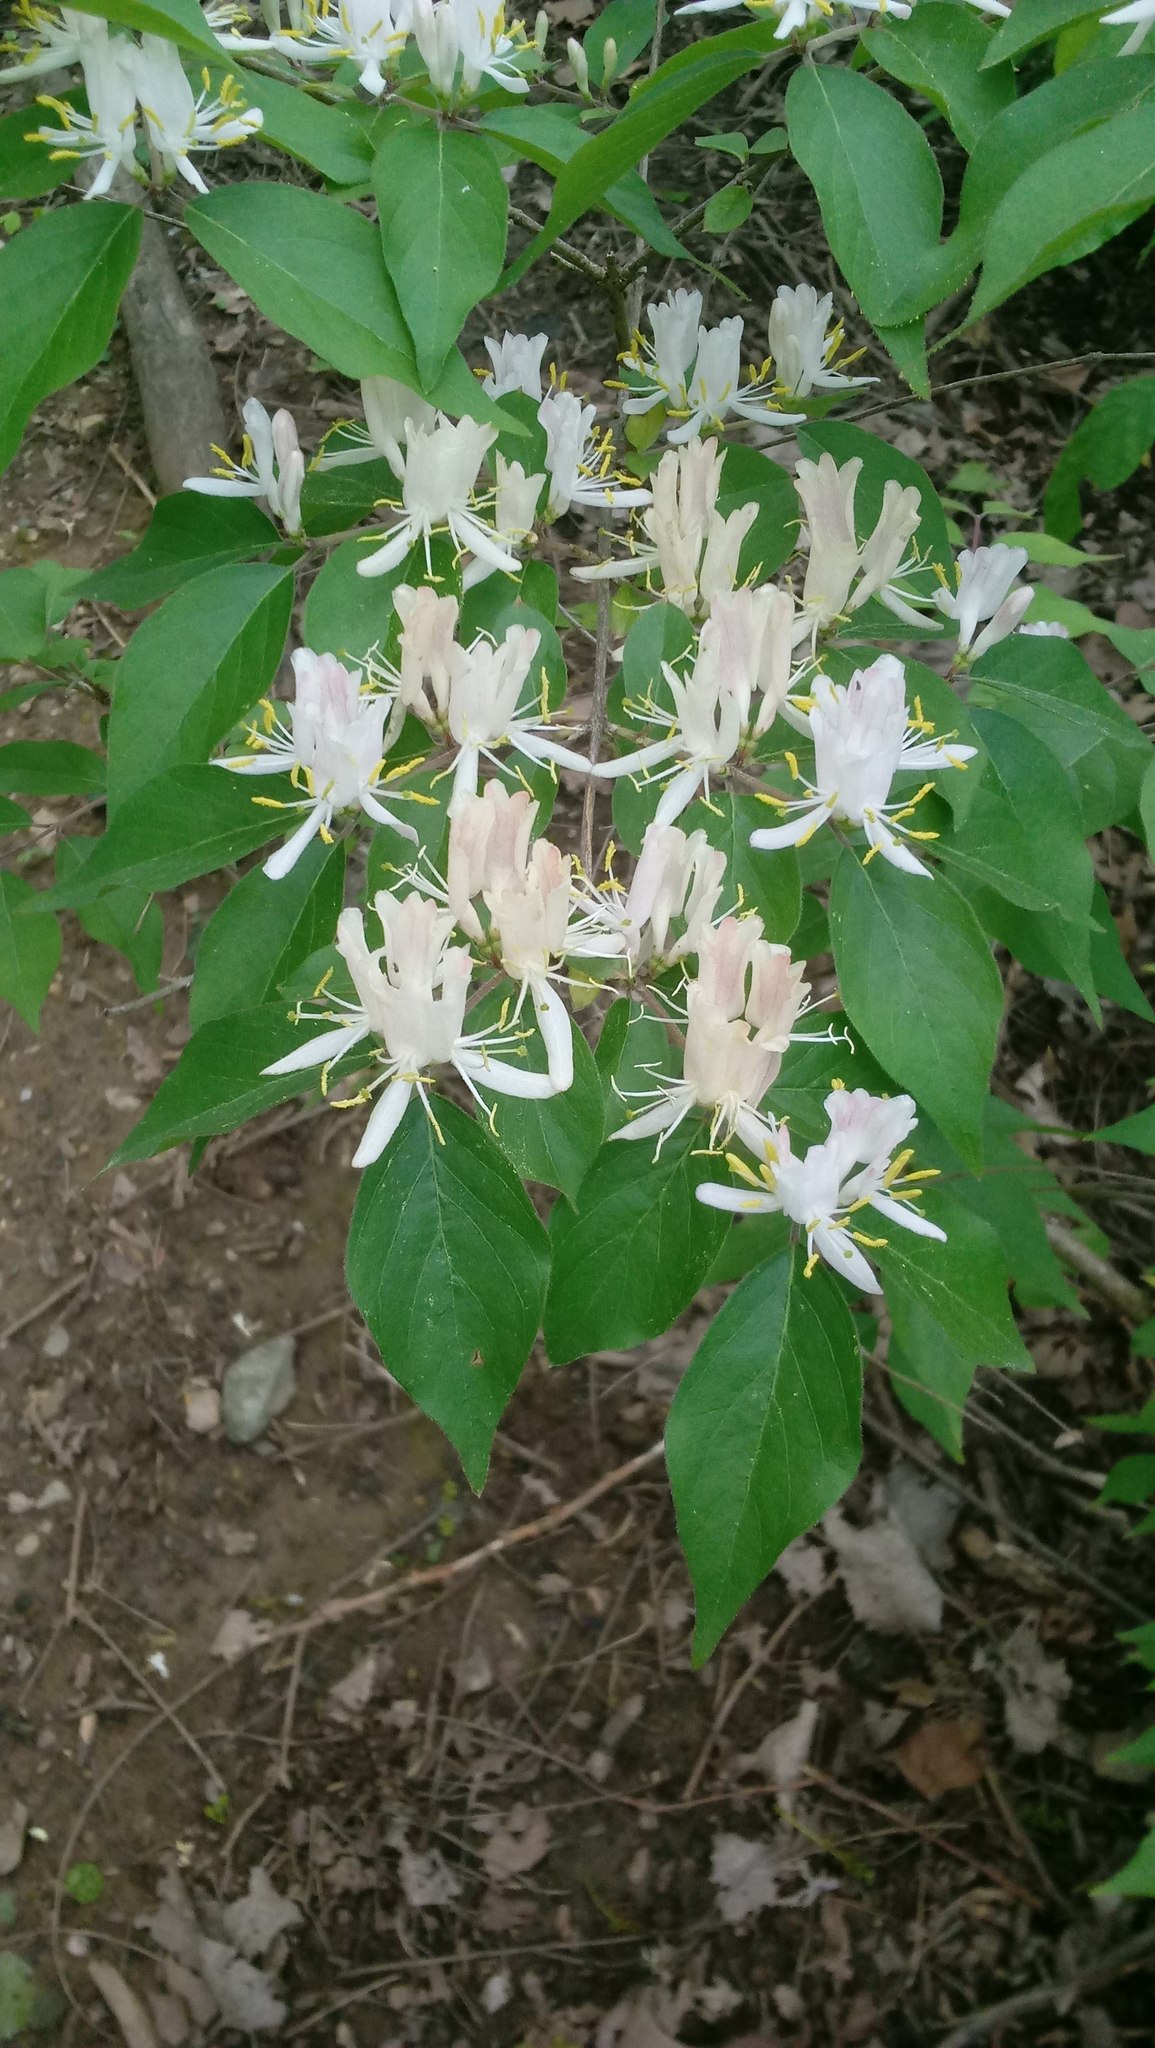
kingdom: Plantae
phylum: Tracheophyta
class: Magnoliopsida
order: Dipsacales
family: Caprifoliaceae
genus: Lonicera
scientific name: Lonicera maackii
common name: Amur honeysuckle
